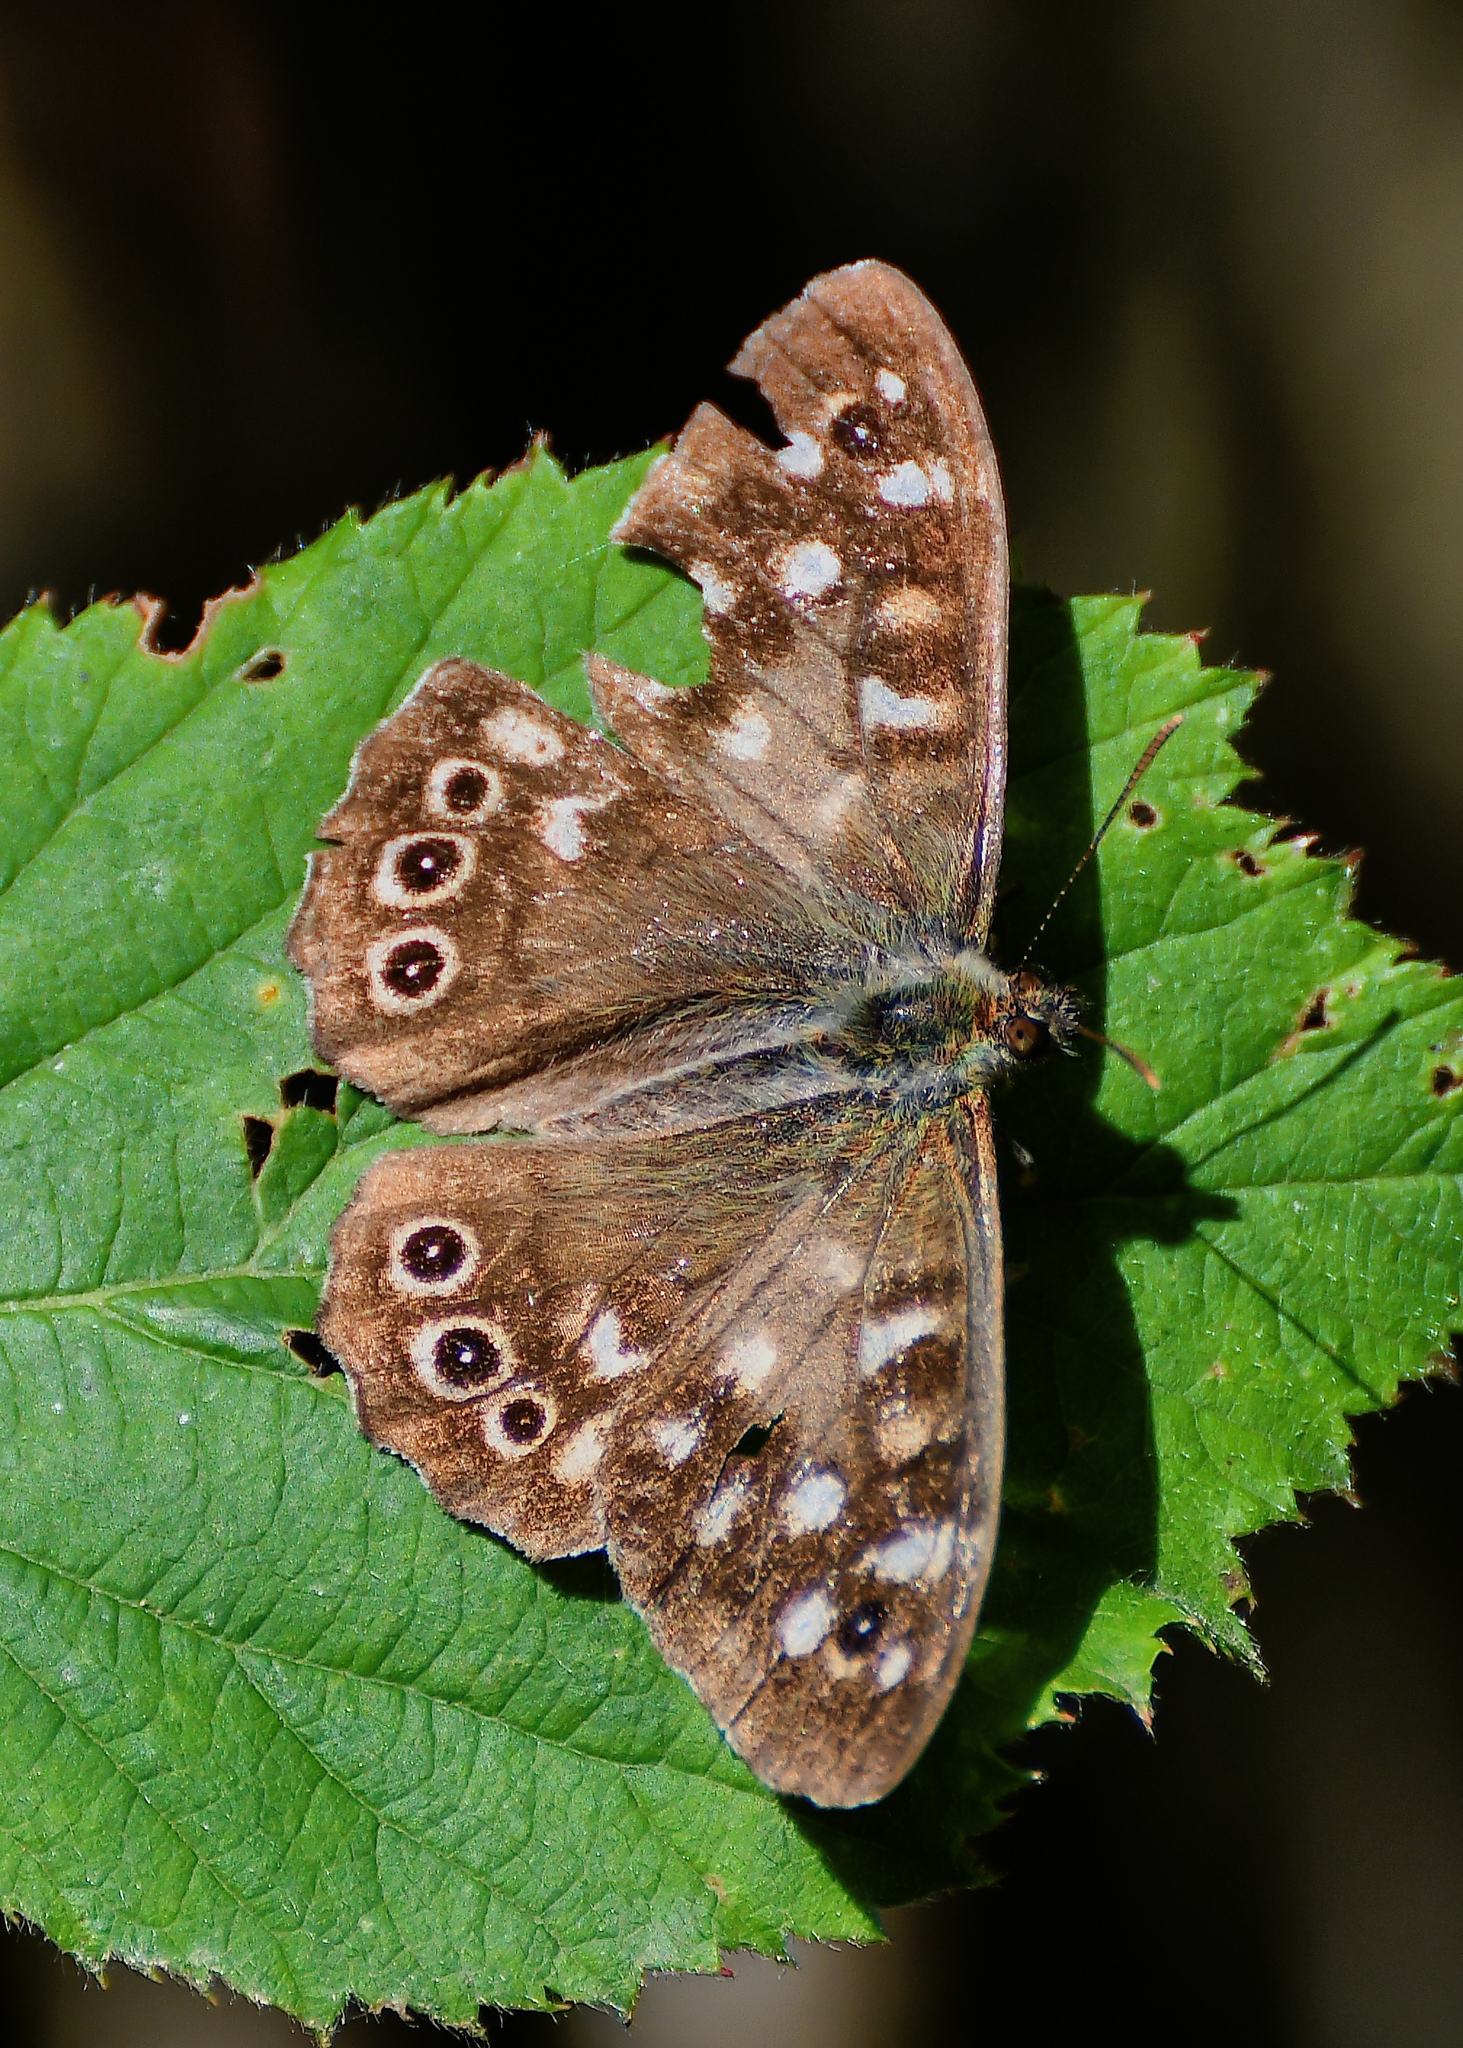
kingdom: Animalia
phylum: Arthropoda
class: Insecta
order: Lepidoptera
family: Nymphalidae
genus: Pararge
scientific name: Pararge aegeria
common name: Speckled wood
